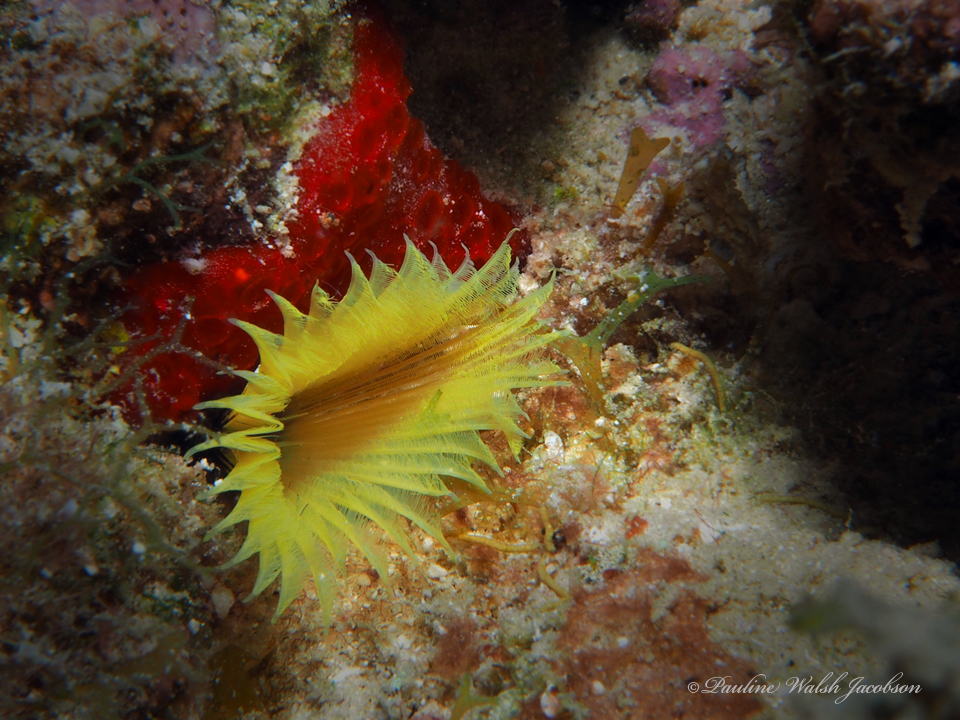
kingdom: Animalia
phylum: Annelida
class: Polychaeta
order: Sabellida
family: Sabellidae
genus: Notaulax
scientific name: Notaulax occidentalis
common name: Yellow fanworm
